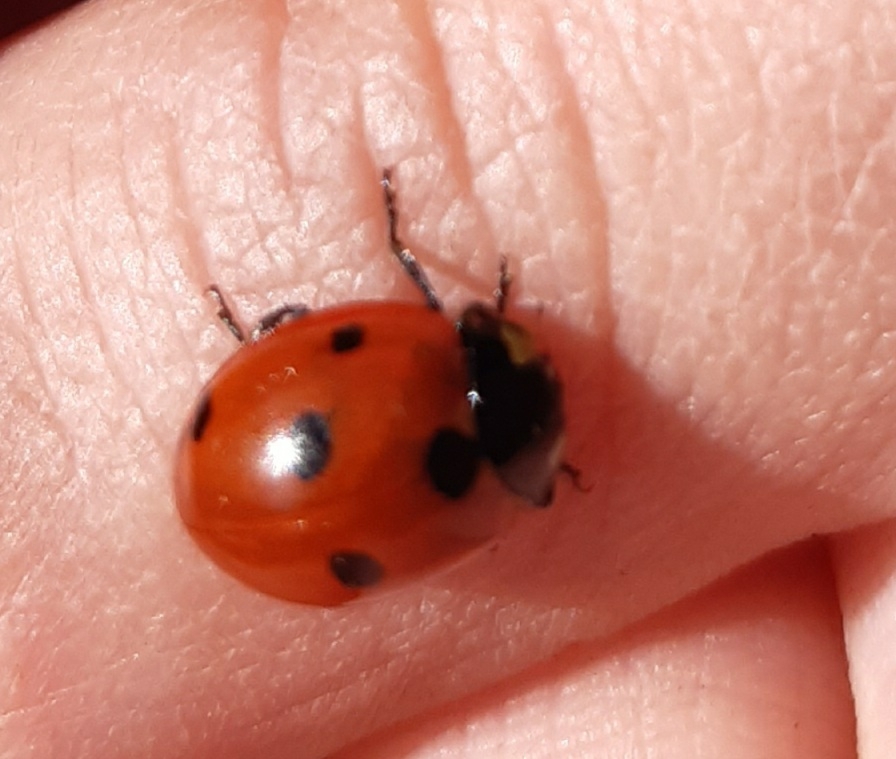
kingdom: Animalia
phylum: Arthropoda
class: Insecta
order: Coleoptera
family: Coccinellidae
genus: Coccinella
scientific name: Coccinella septempunctata
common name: Sevenspotted lady beetle
